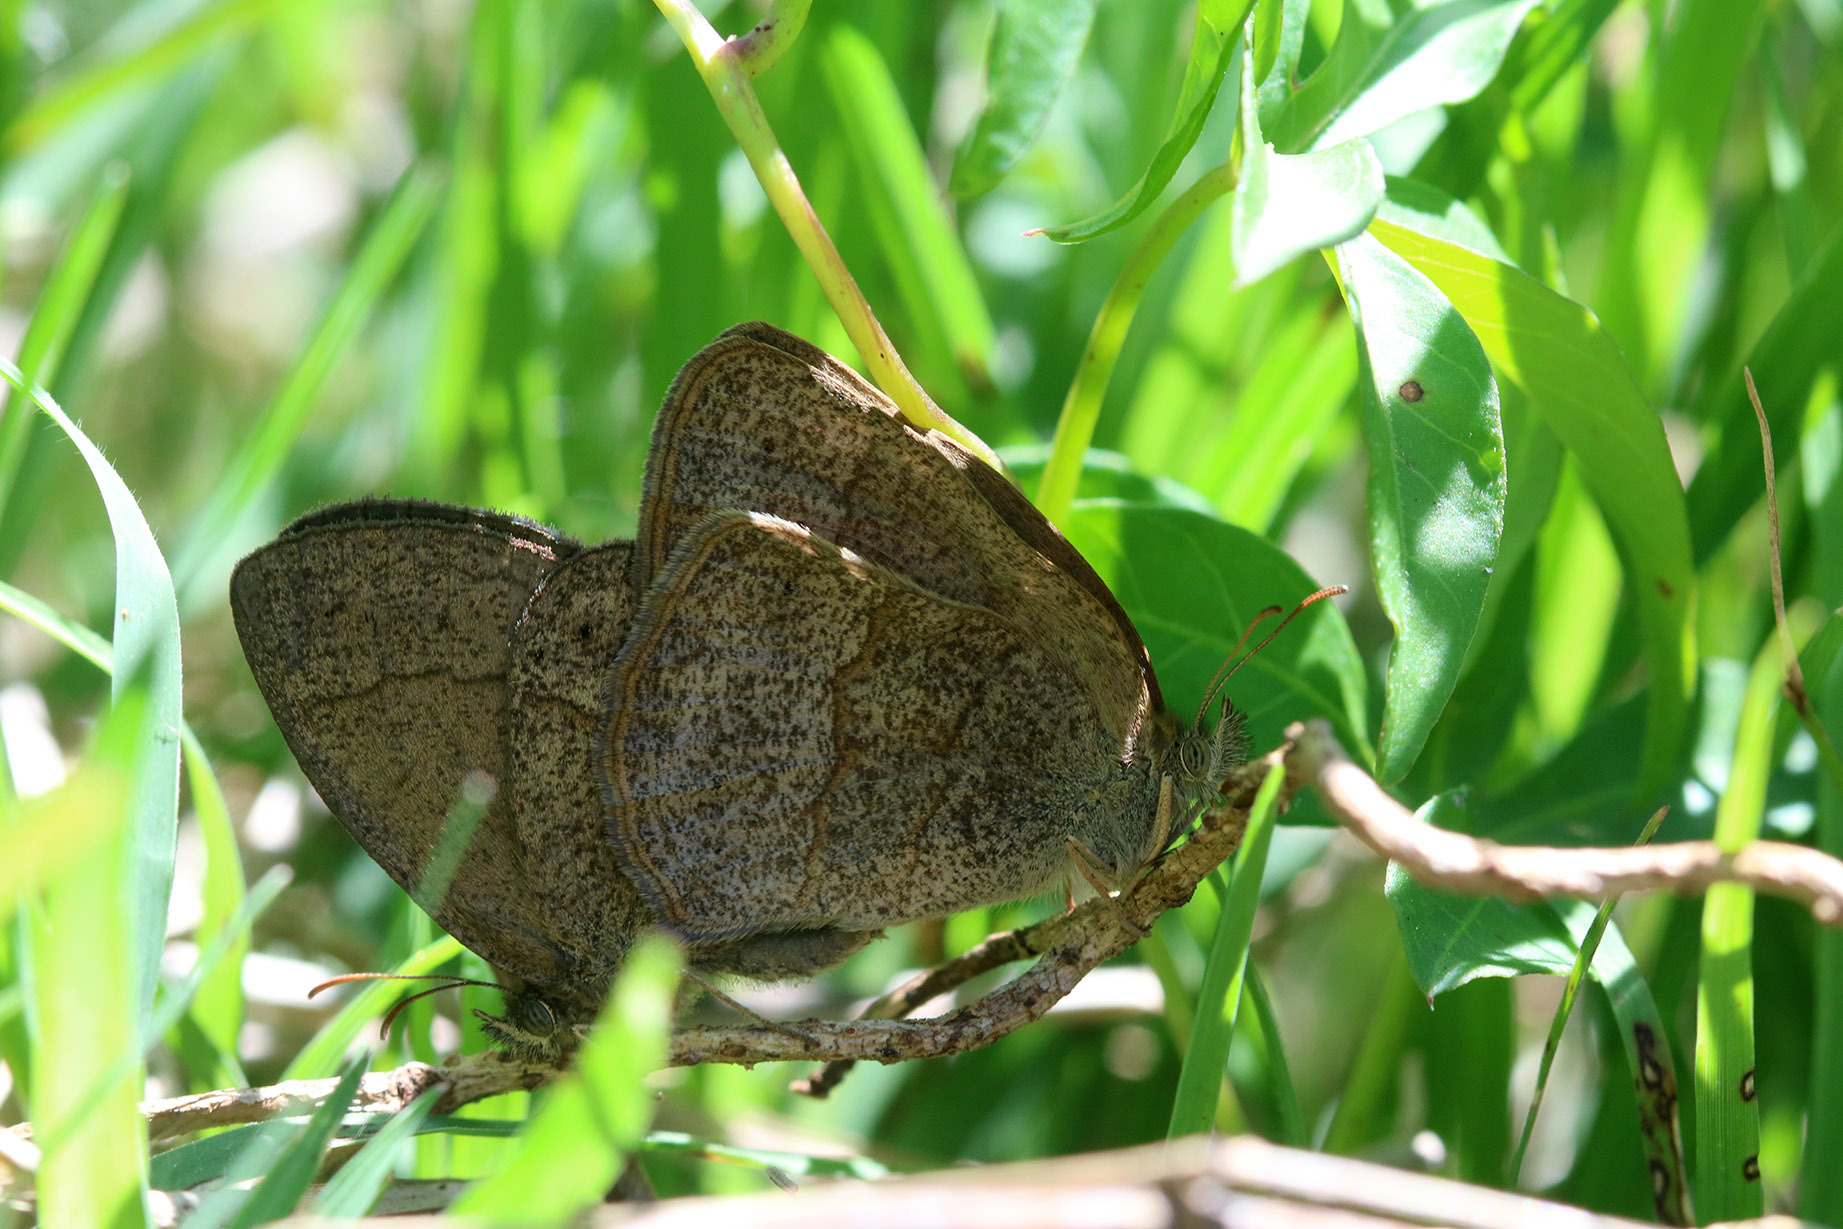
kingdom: Animalia
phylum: Arthropoda
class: Insecta
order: Lepidoptera
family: Nymphalidae
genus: Yphthimoides
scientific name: Yphthimoides celmis
